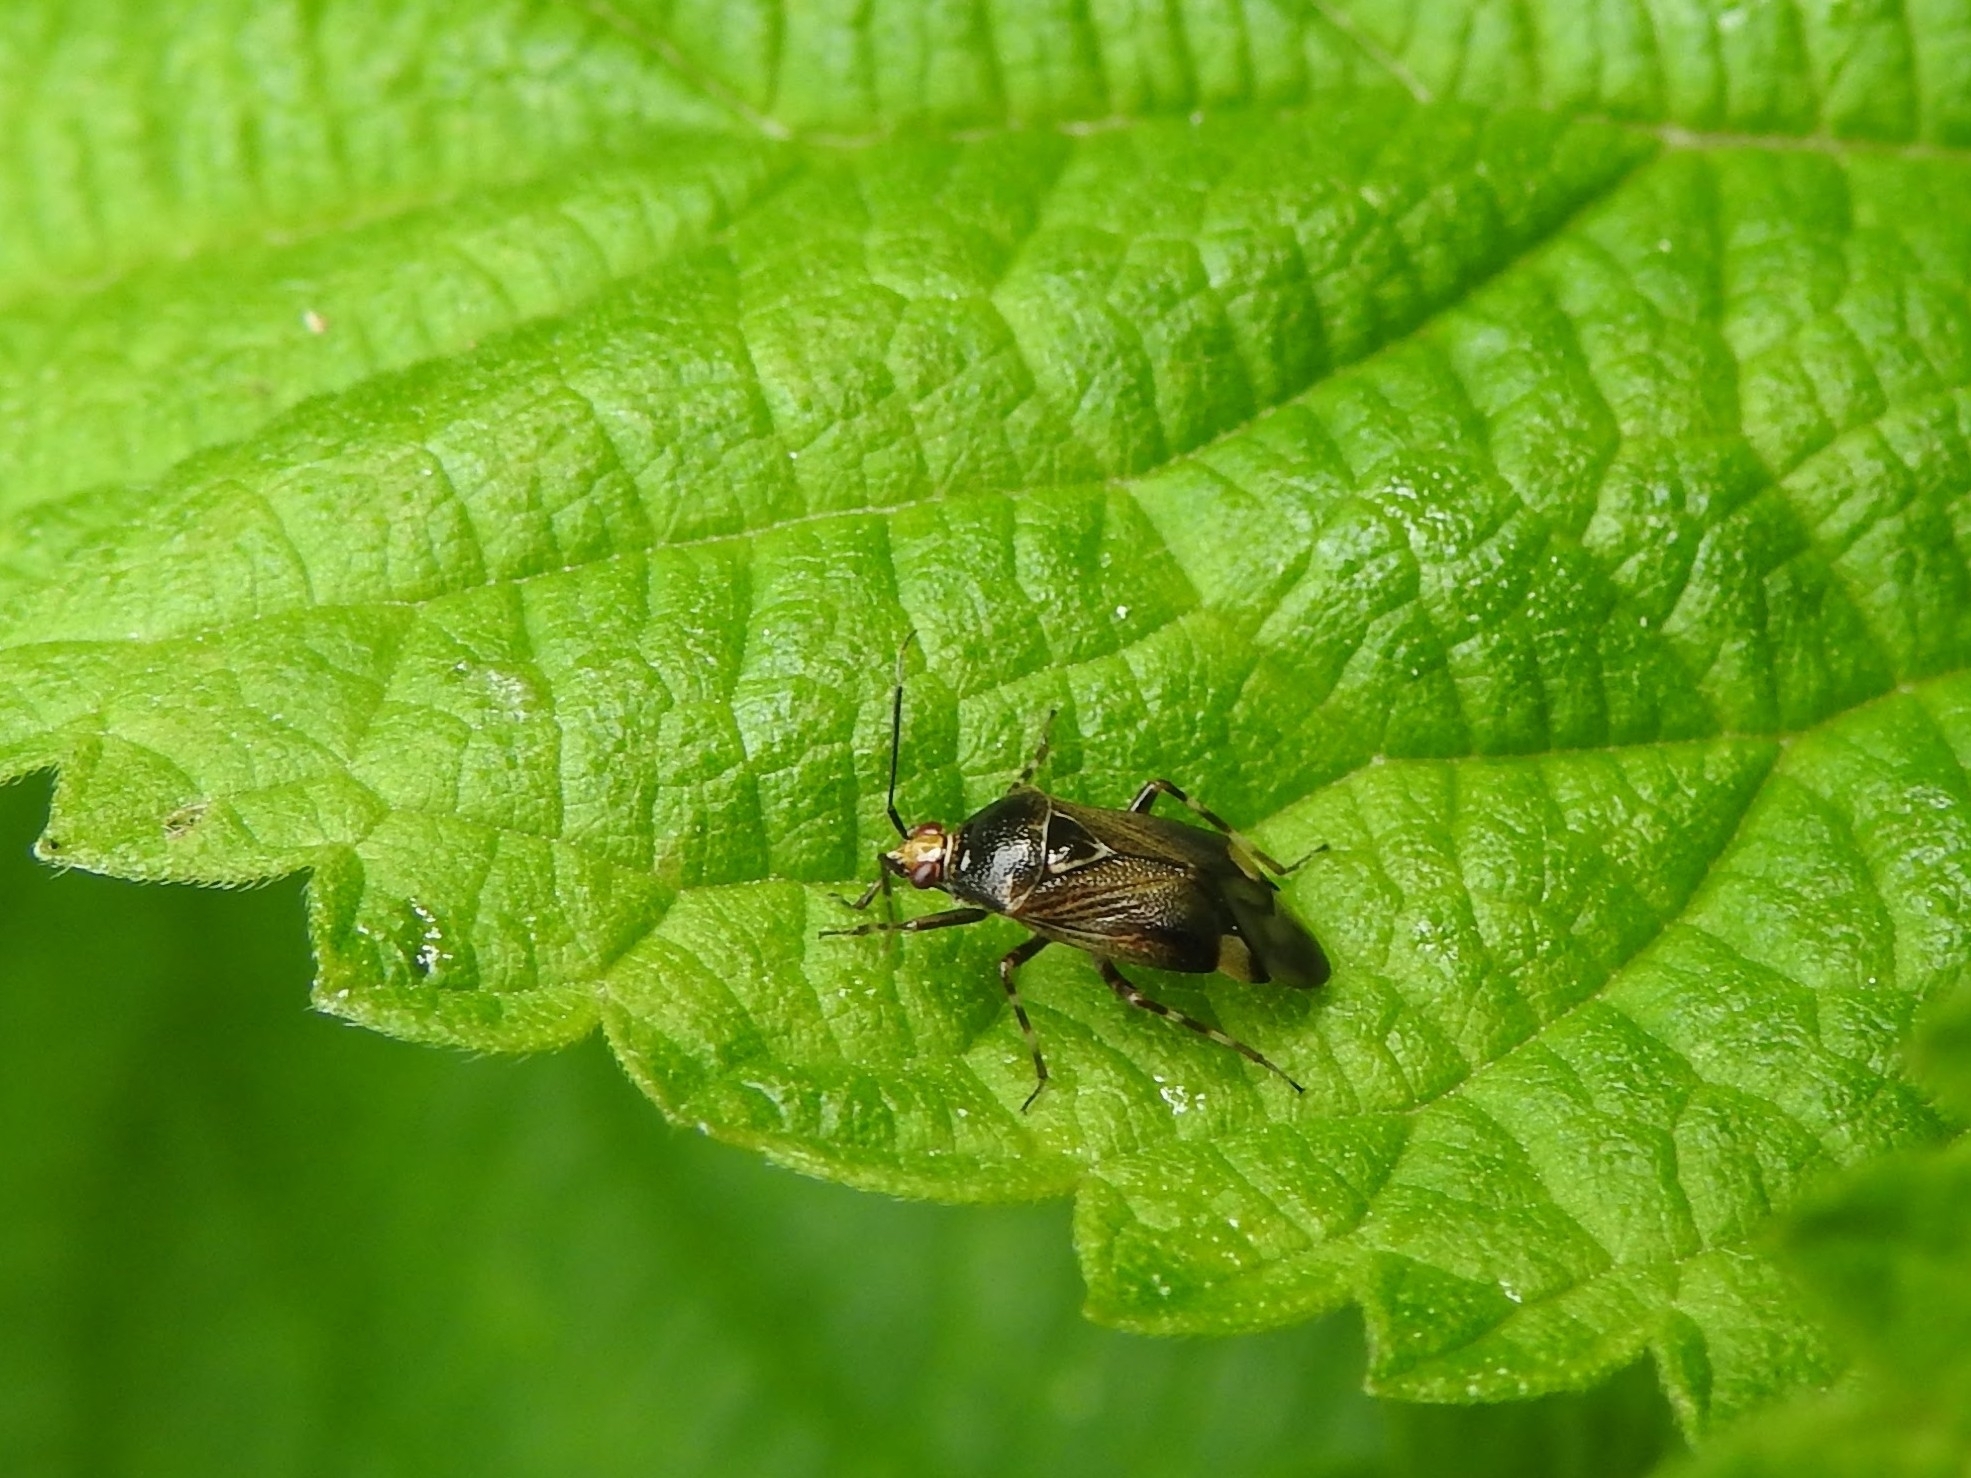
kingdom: Animalia
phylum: Arthropoda
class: Insecta
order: Hemiptera
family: Miridae
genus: Deraeocoris
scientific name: Deraeocoris flavilinea
